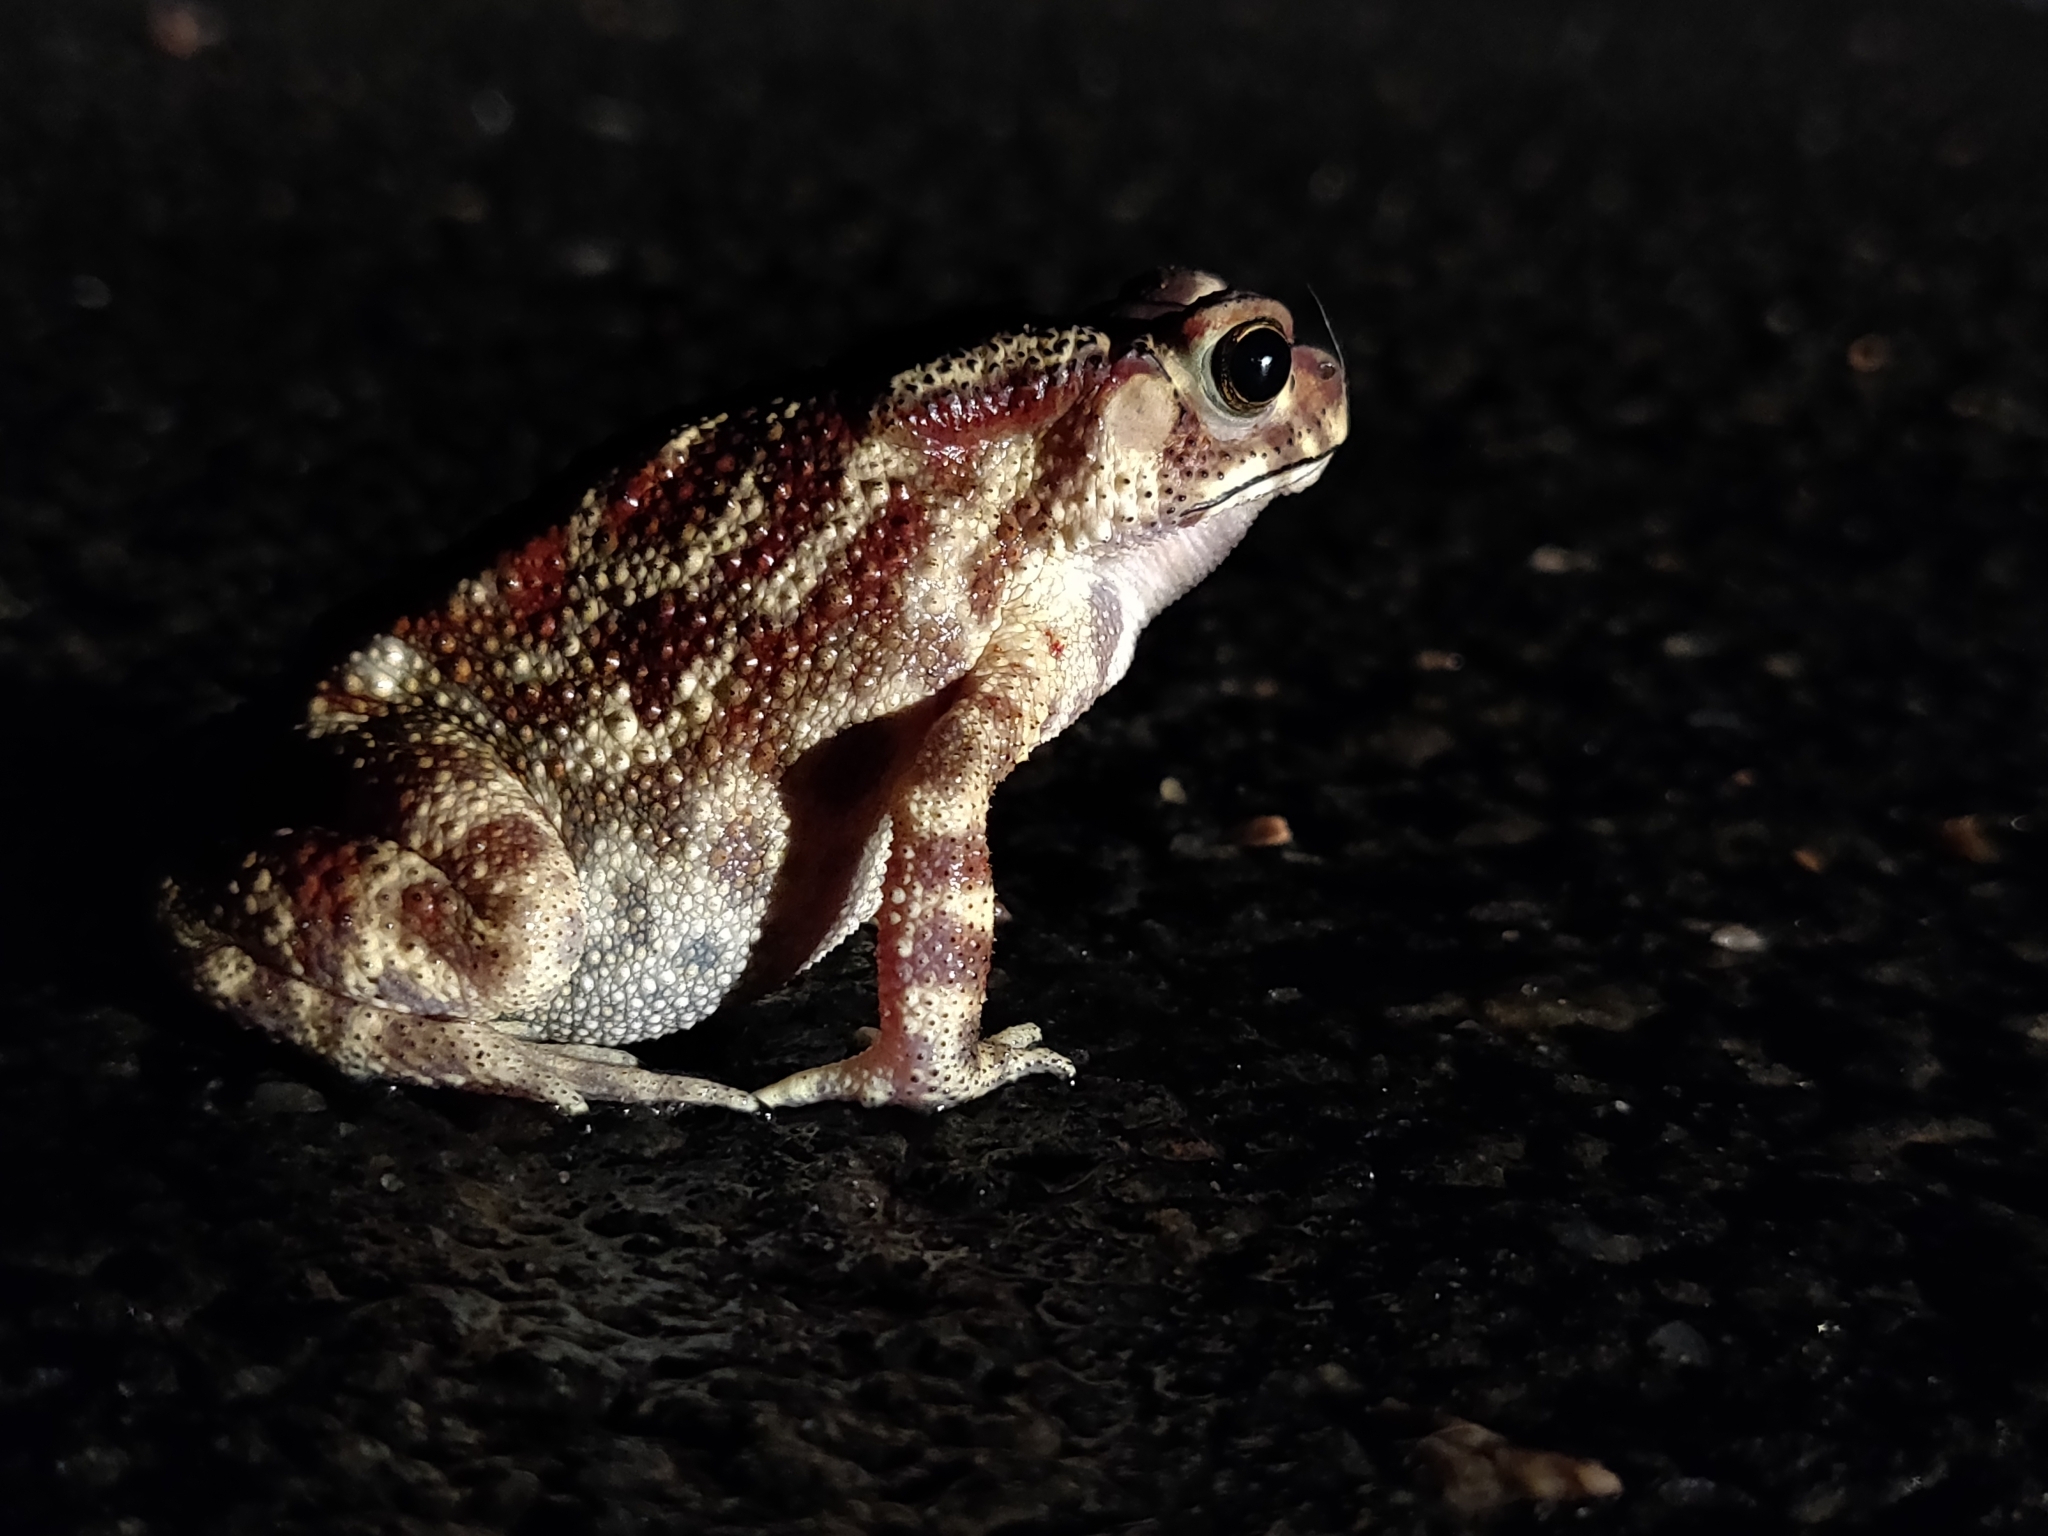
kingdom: Animalia
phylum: Chordata
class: Amphibia
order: Anura
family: Bufonidae
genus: Duttaphrynus
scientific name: Duttaphrynus melanostictus
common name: Common sunda toad
